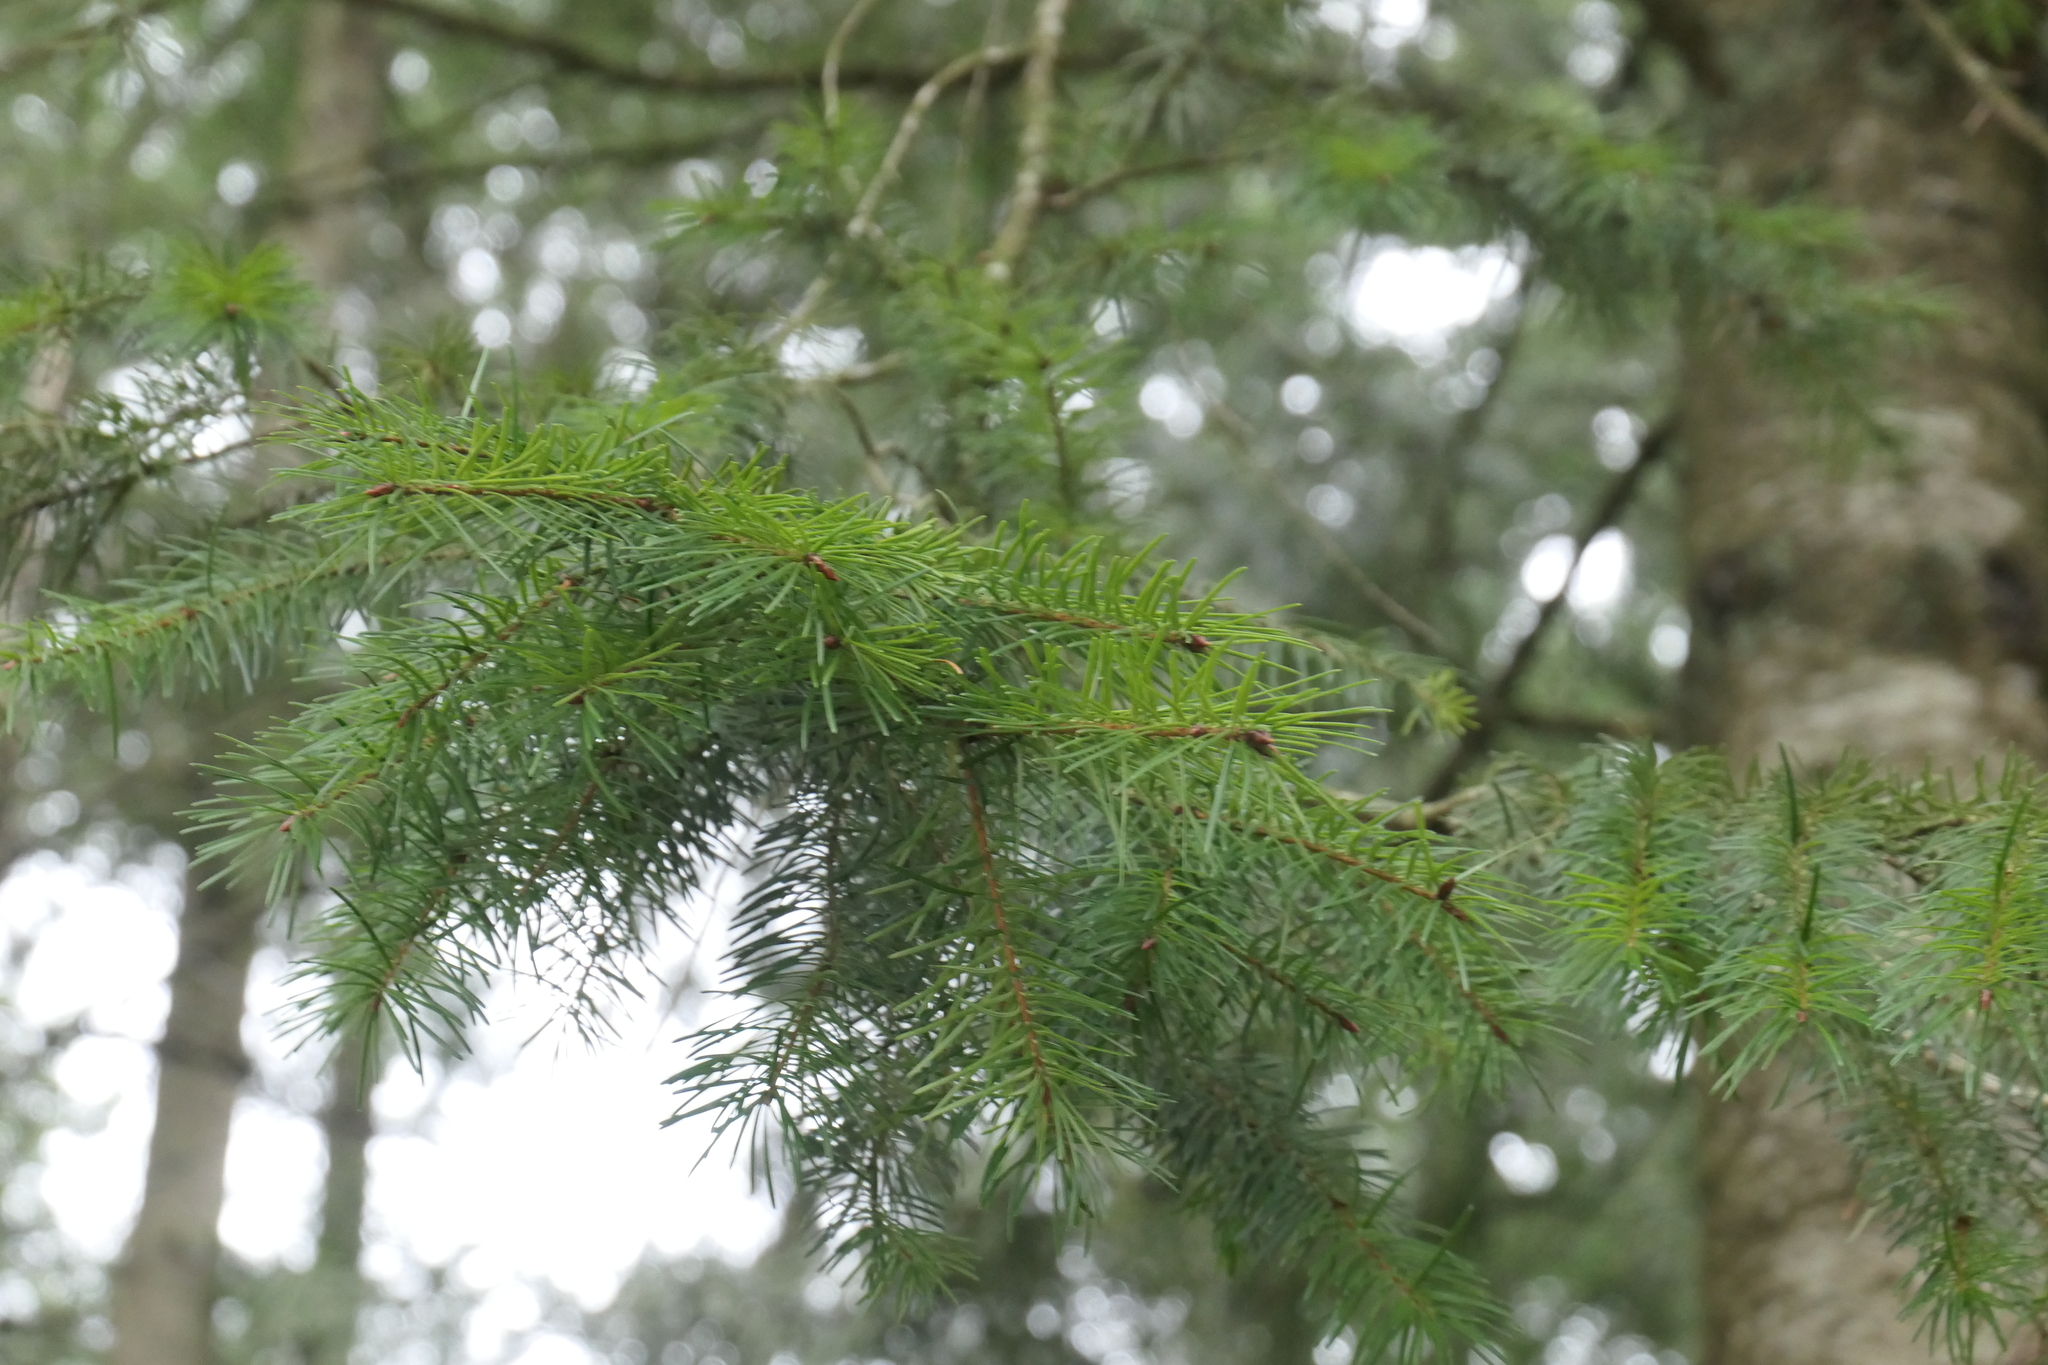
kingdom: Plantae
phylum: Tracheophyta
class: Pinopsida
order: Pinales
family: Pinaceae
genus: Pseudotsuga
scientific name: Pseudotsuga menziesii
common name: Douglas fir
